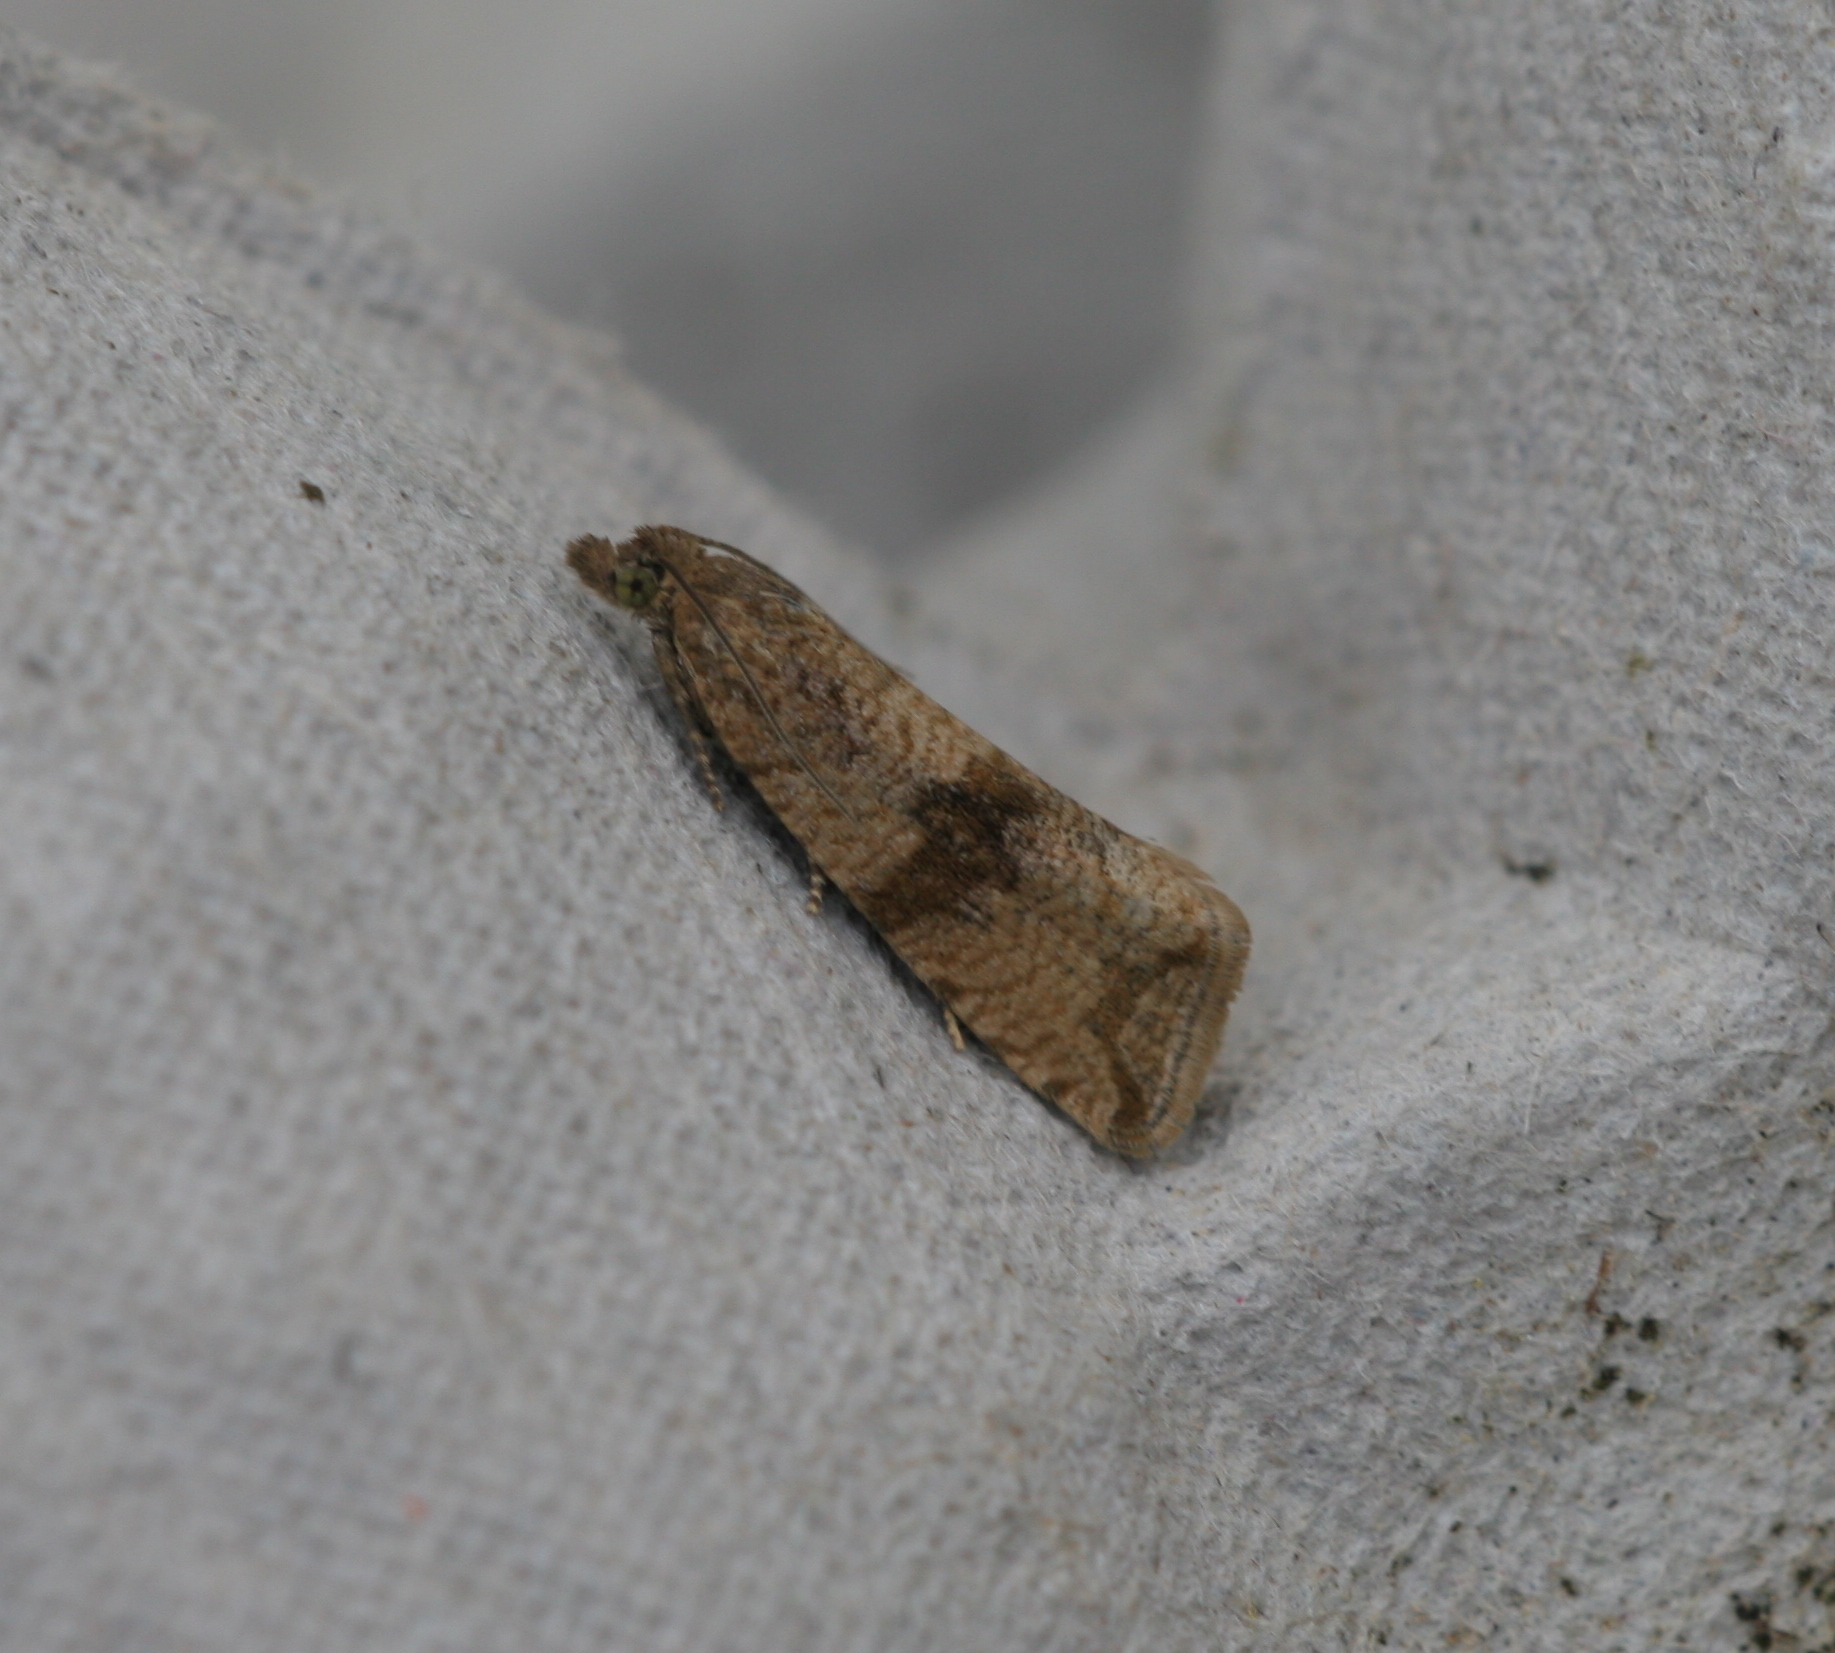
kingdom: Animalia
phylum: Arthropoda
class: Insecta
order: Lepidoptera
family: Tortricidae
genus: Celypha
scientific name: Celypha striana
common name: Barred marble
